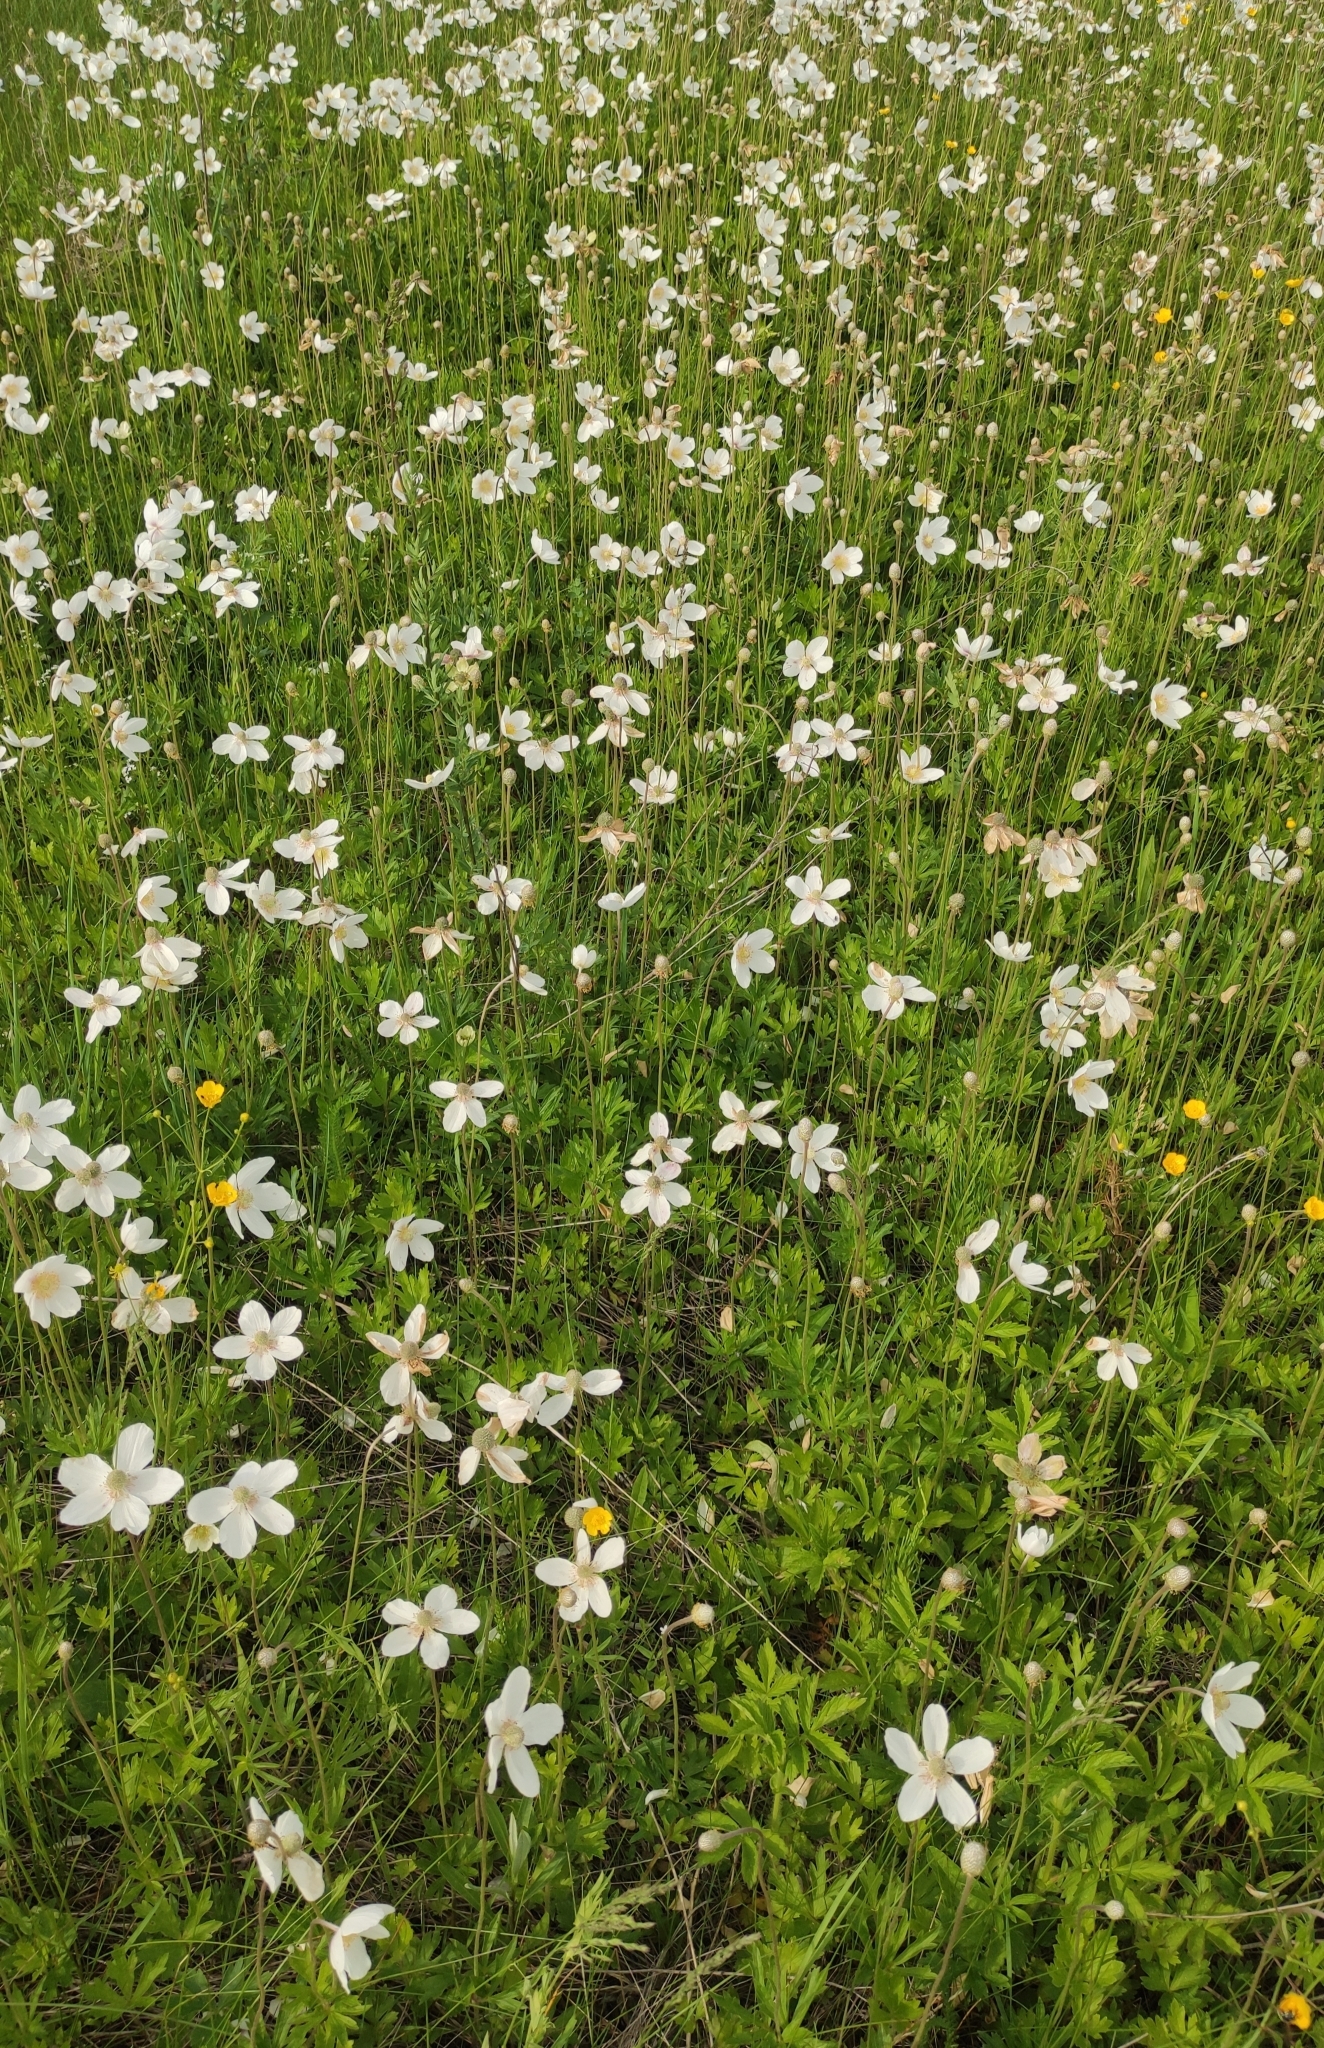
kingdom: Plantae
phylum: Tracheophyta
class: Magnoliopsida
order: Ranunculales
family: Ranunculaceae
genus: Anemone
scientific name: Anemone sylvestris
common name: Snowdrop anemone
